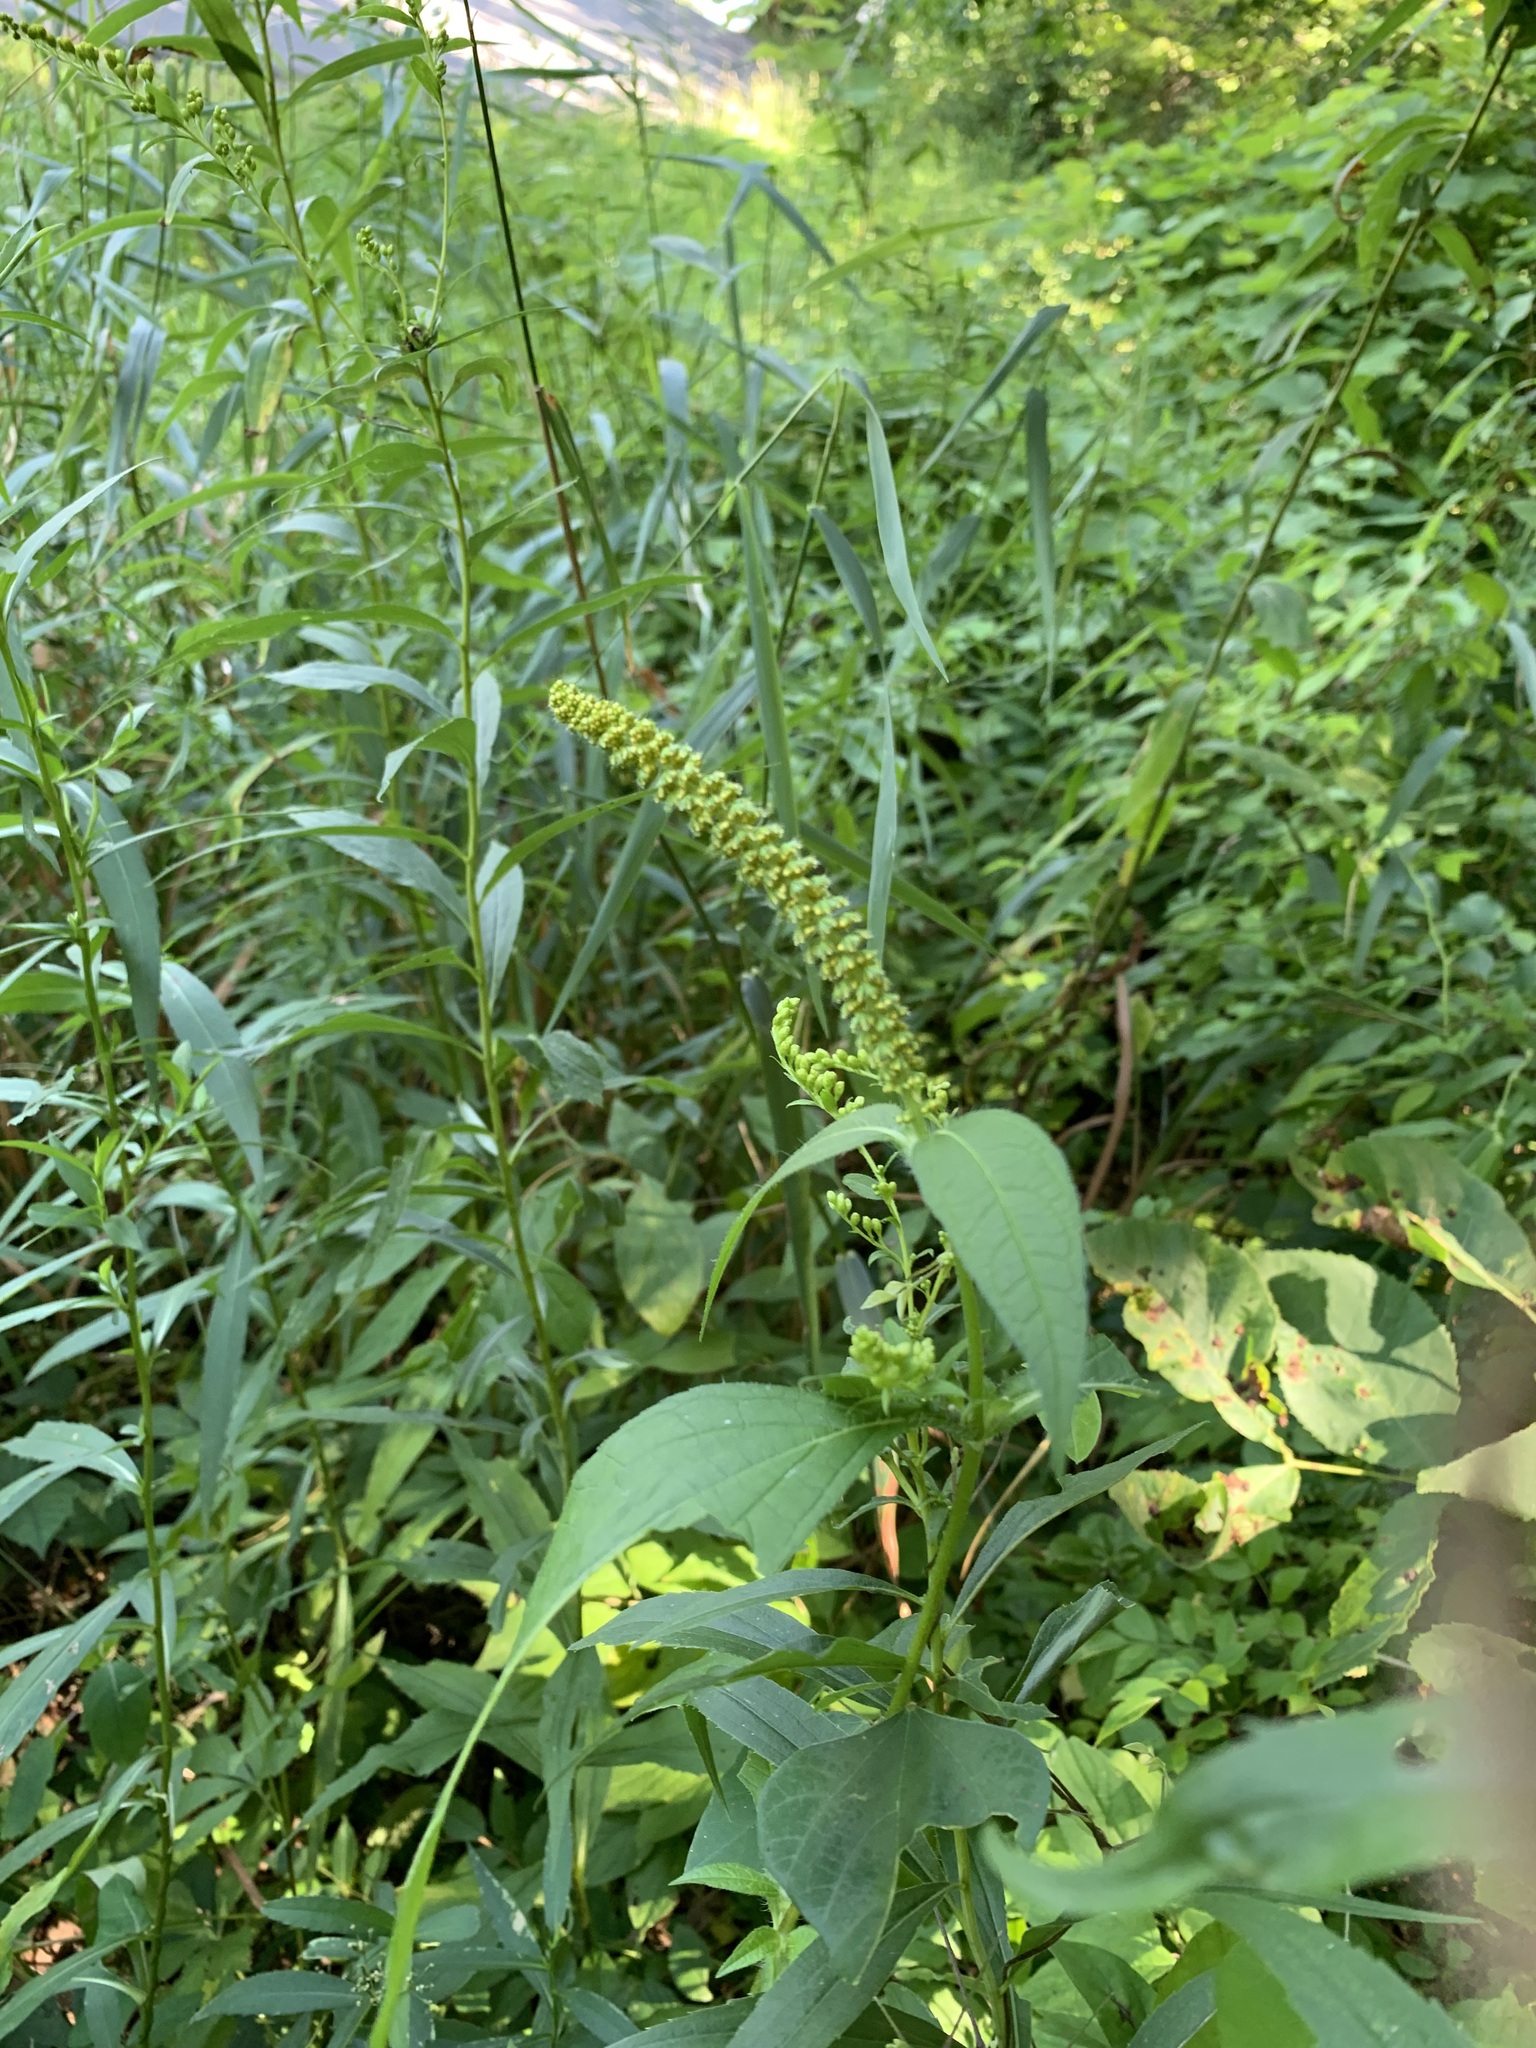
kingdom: Plantae
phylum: Tracheophyta
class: Magnoliopsida
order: Asterales
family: Asteraceae
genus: Ambrosia
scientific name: Ambrosia trifida
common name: Giant ragweed
